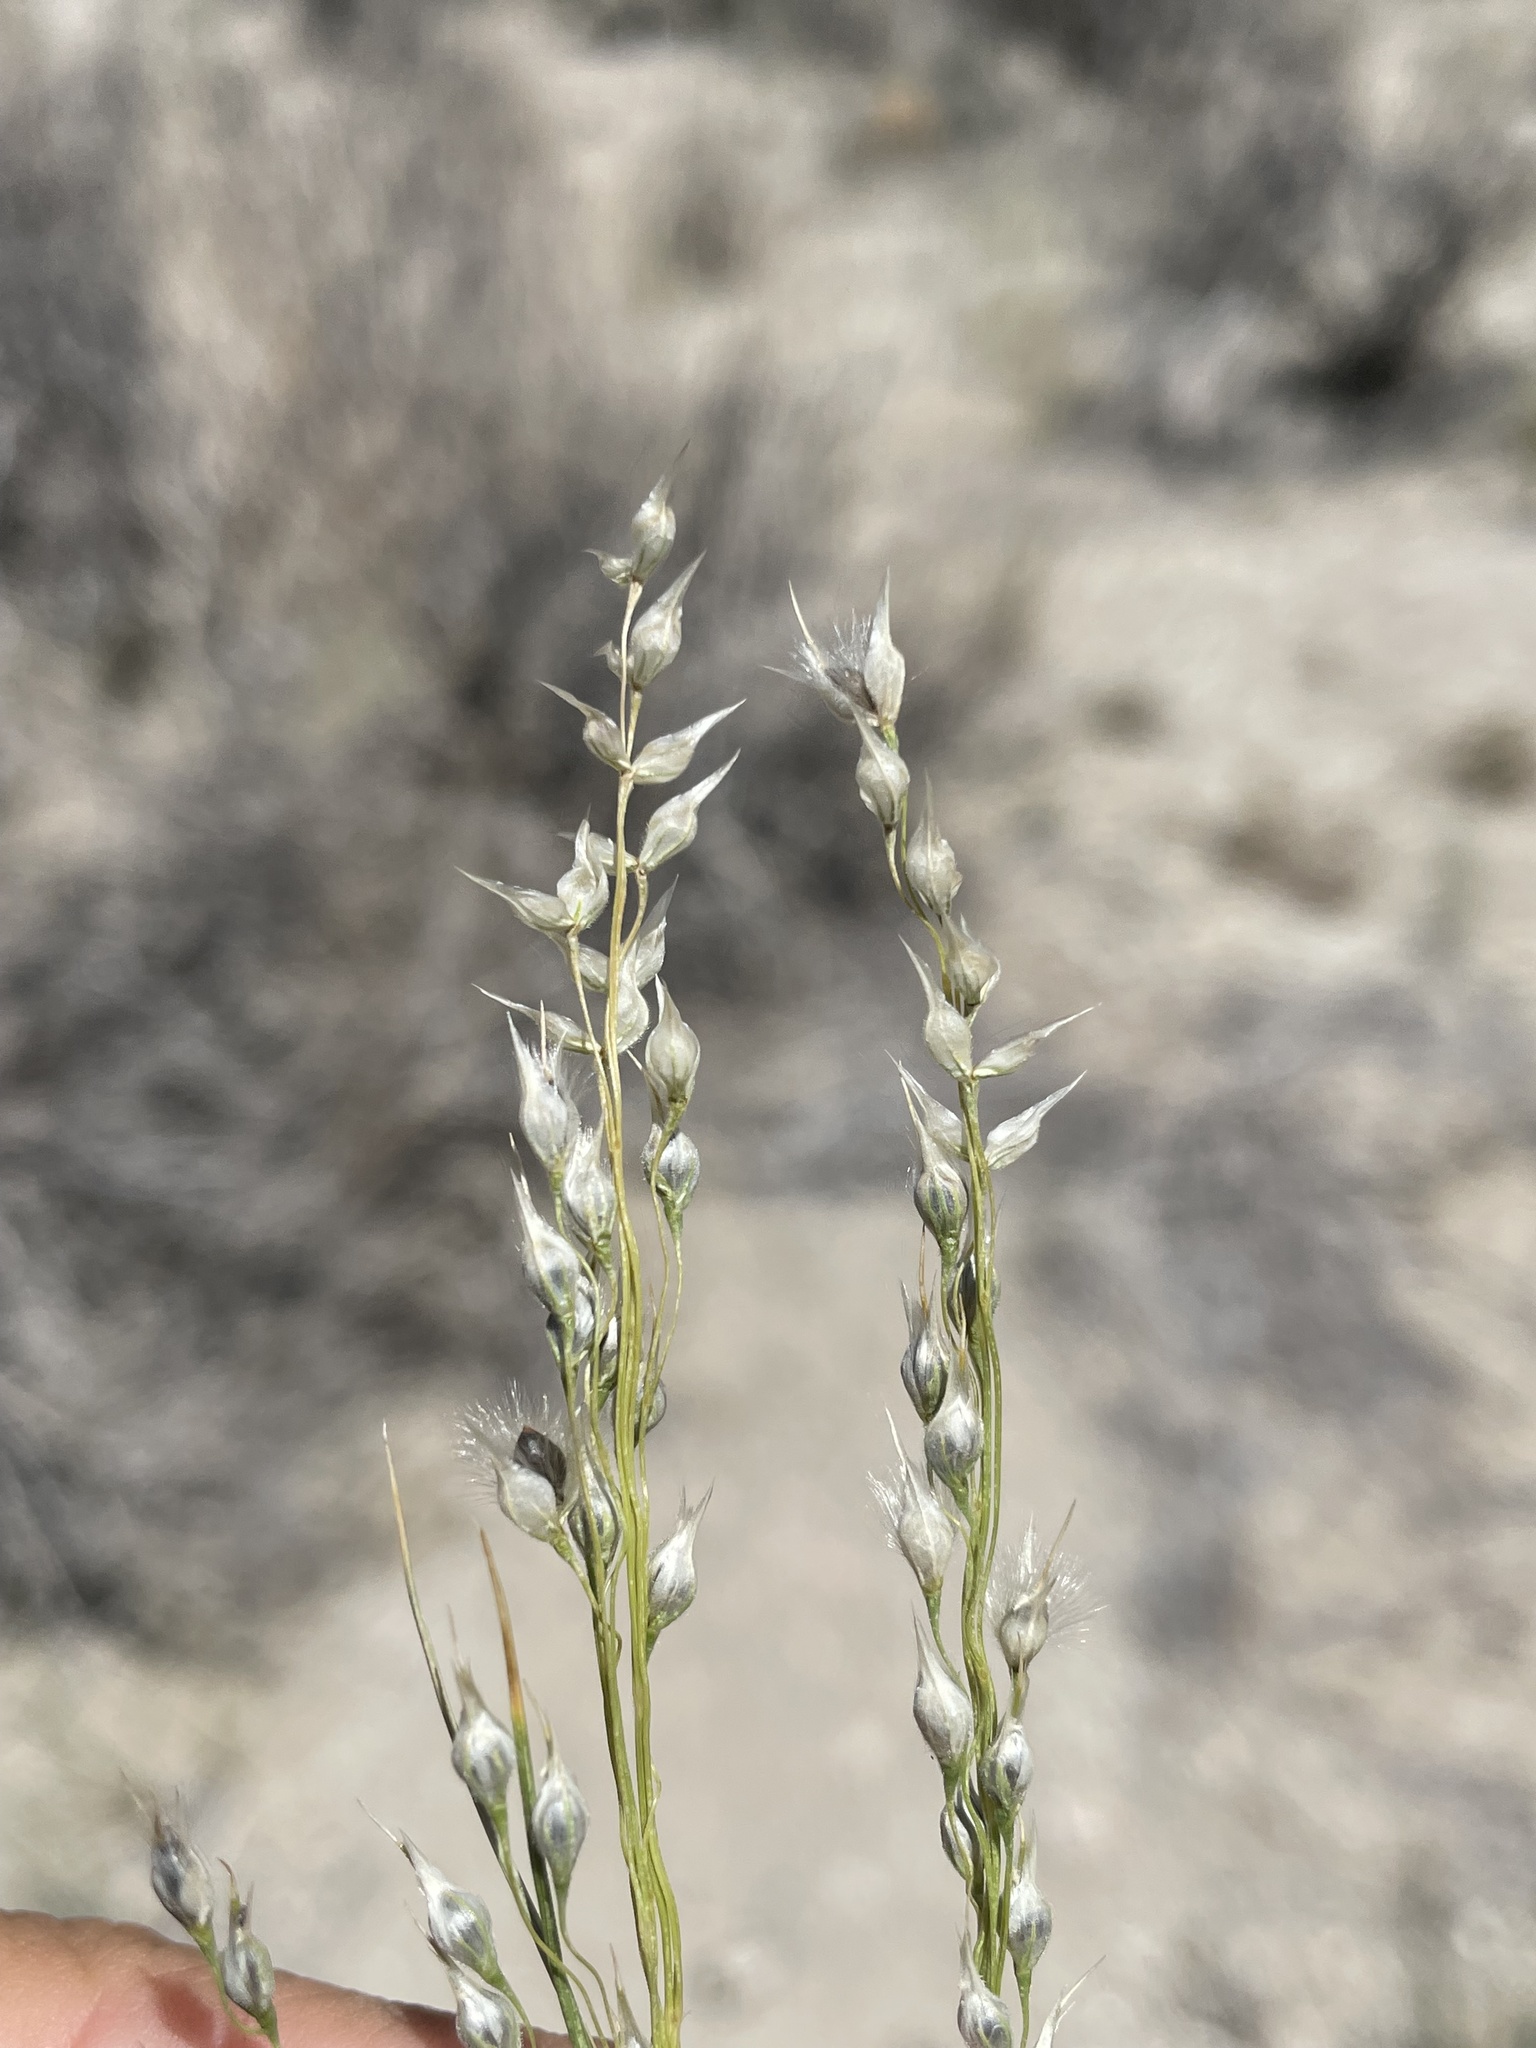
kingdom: Plantae
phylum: Tracheophyta
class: Liliopsida
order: Poales
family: Poaceae
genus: Eriocoma
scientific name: Eriocoma arnowiae
